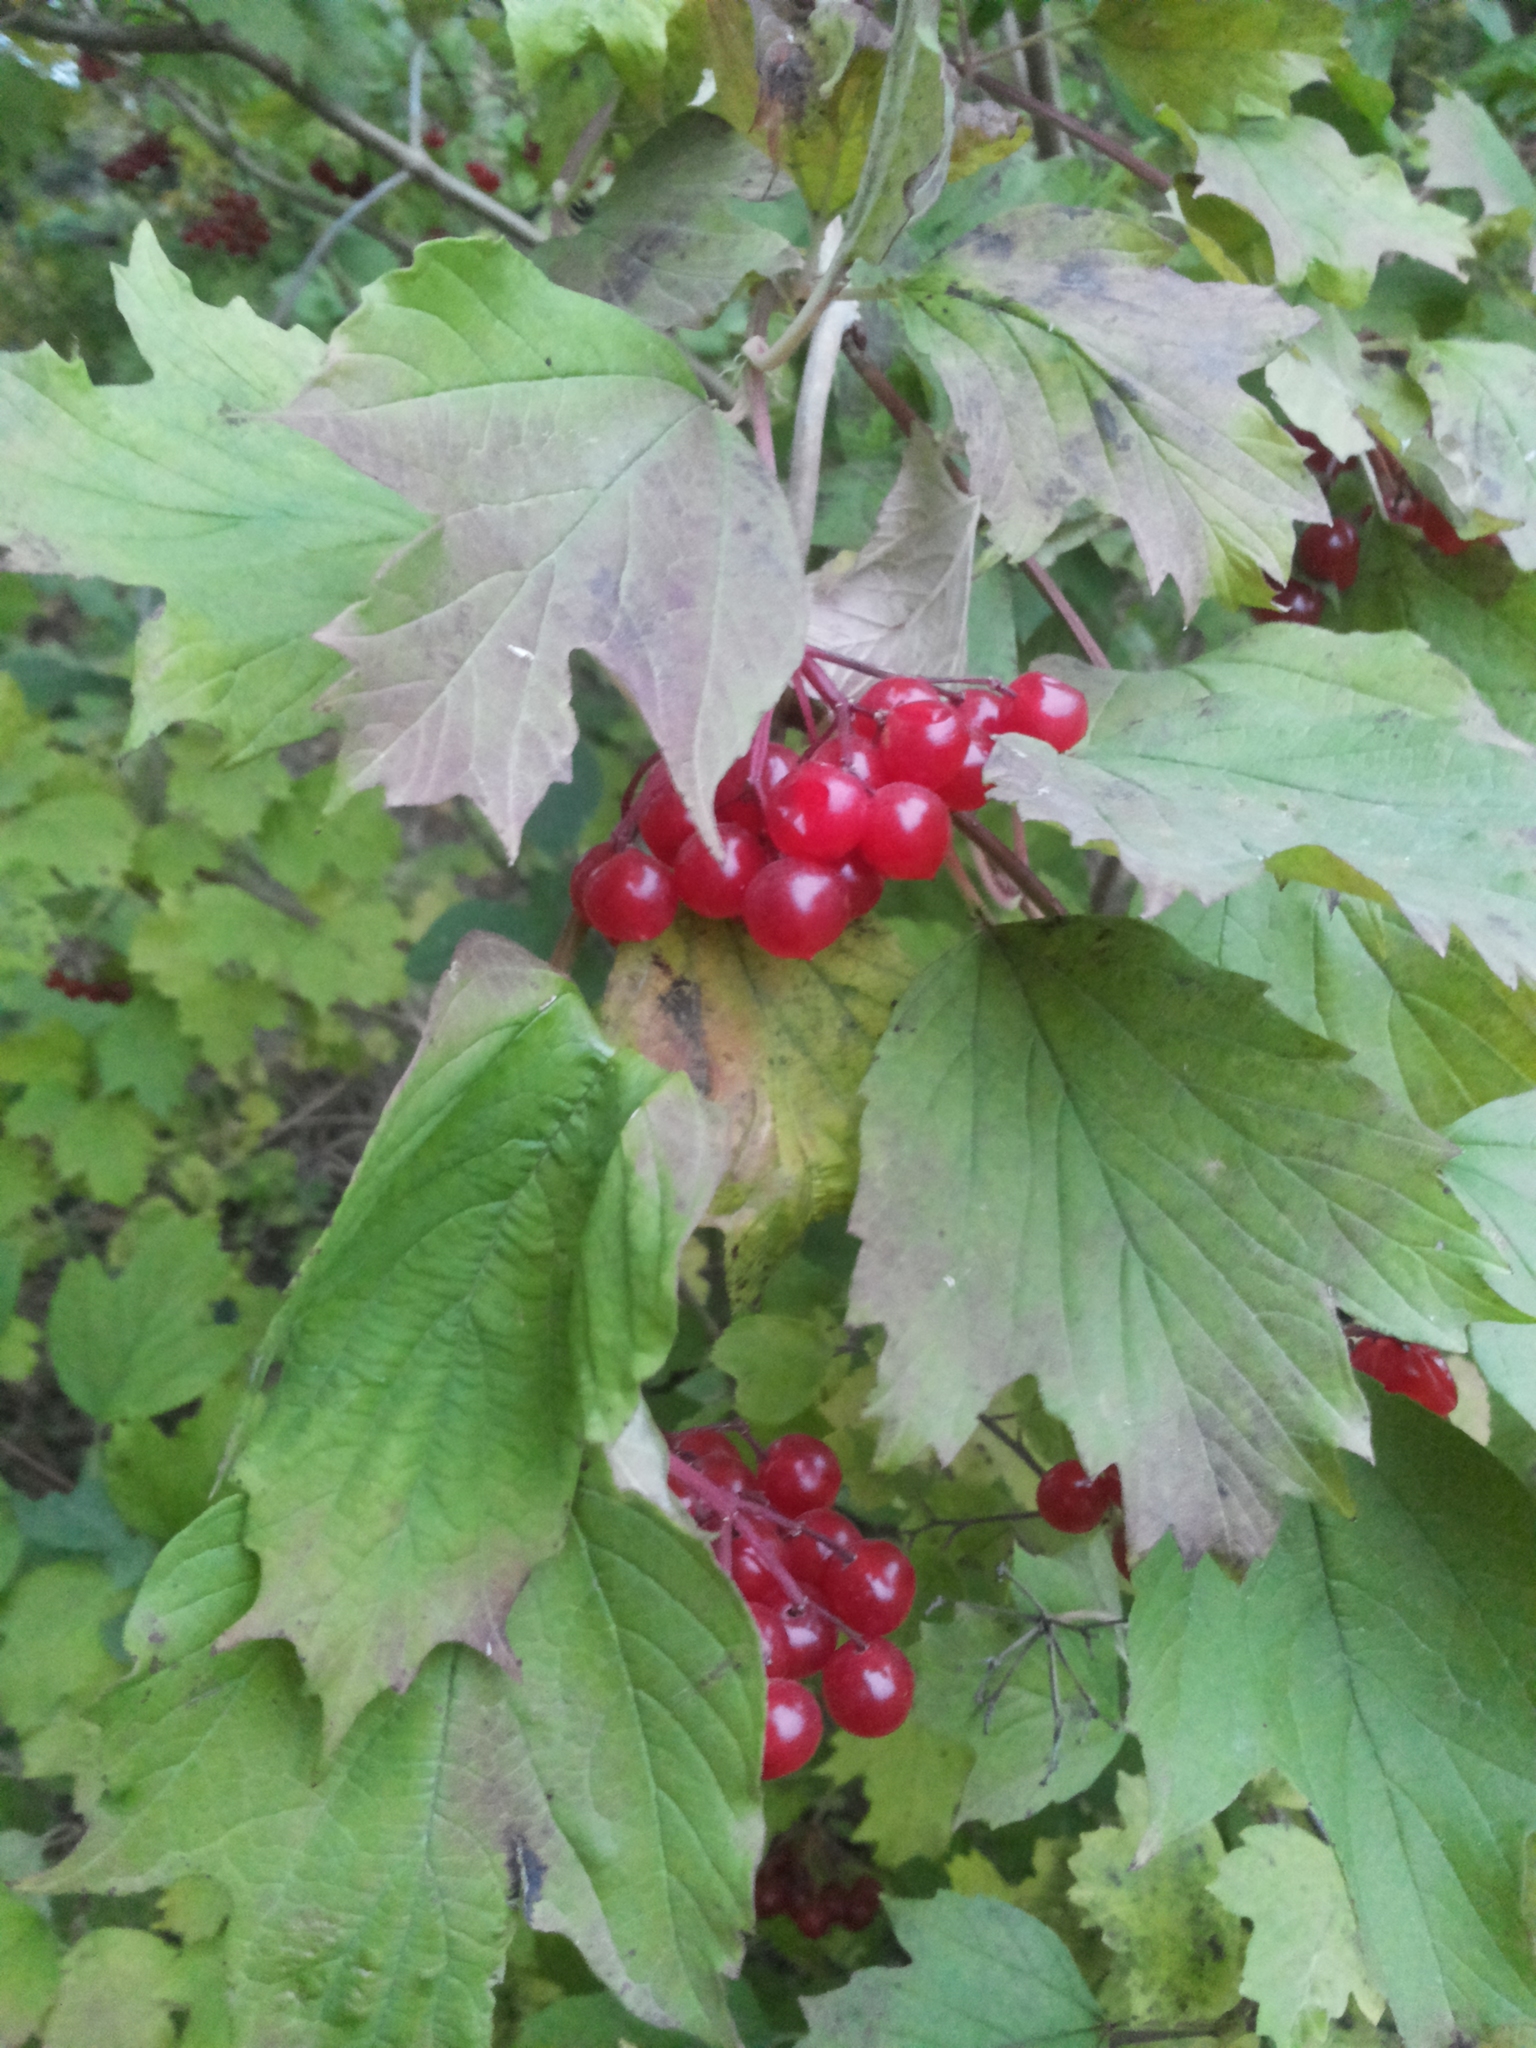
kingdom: Plantae
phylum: Tracheophyta
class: Magnoliopsida
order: Dipsacales
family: Viburnaceae
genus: Viburnum
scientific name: Viburnum opulus
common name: Guelder-rose
